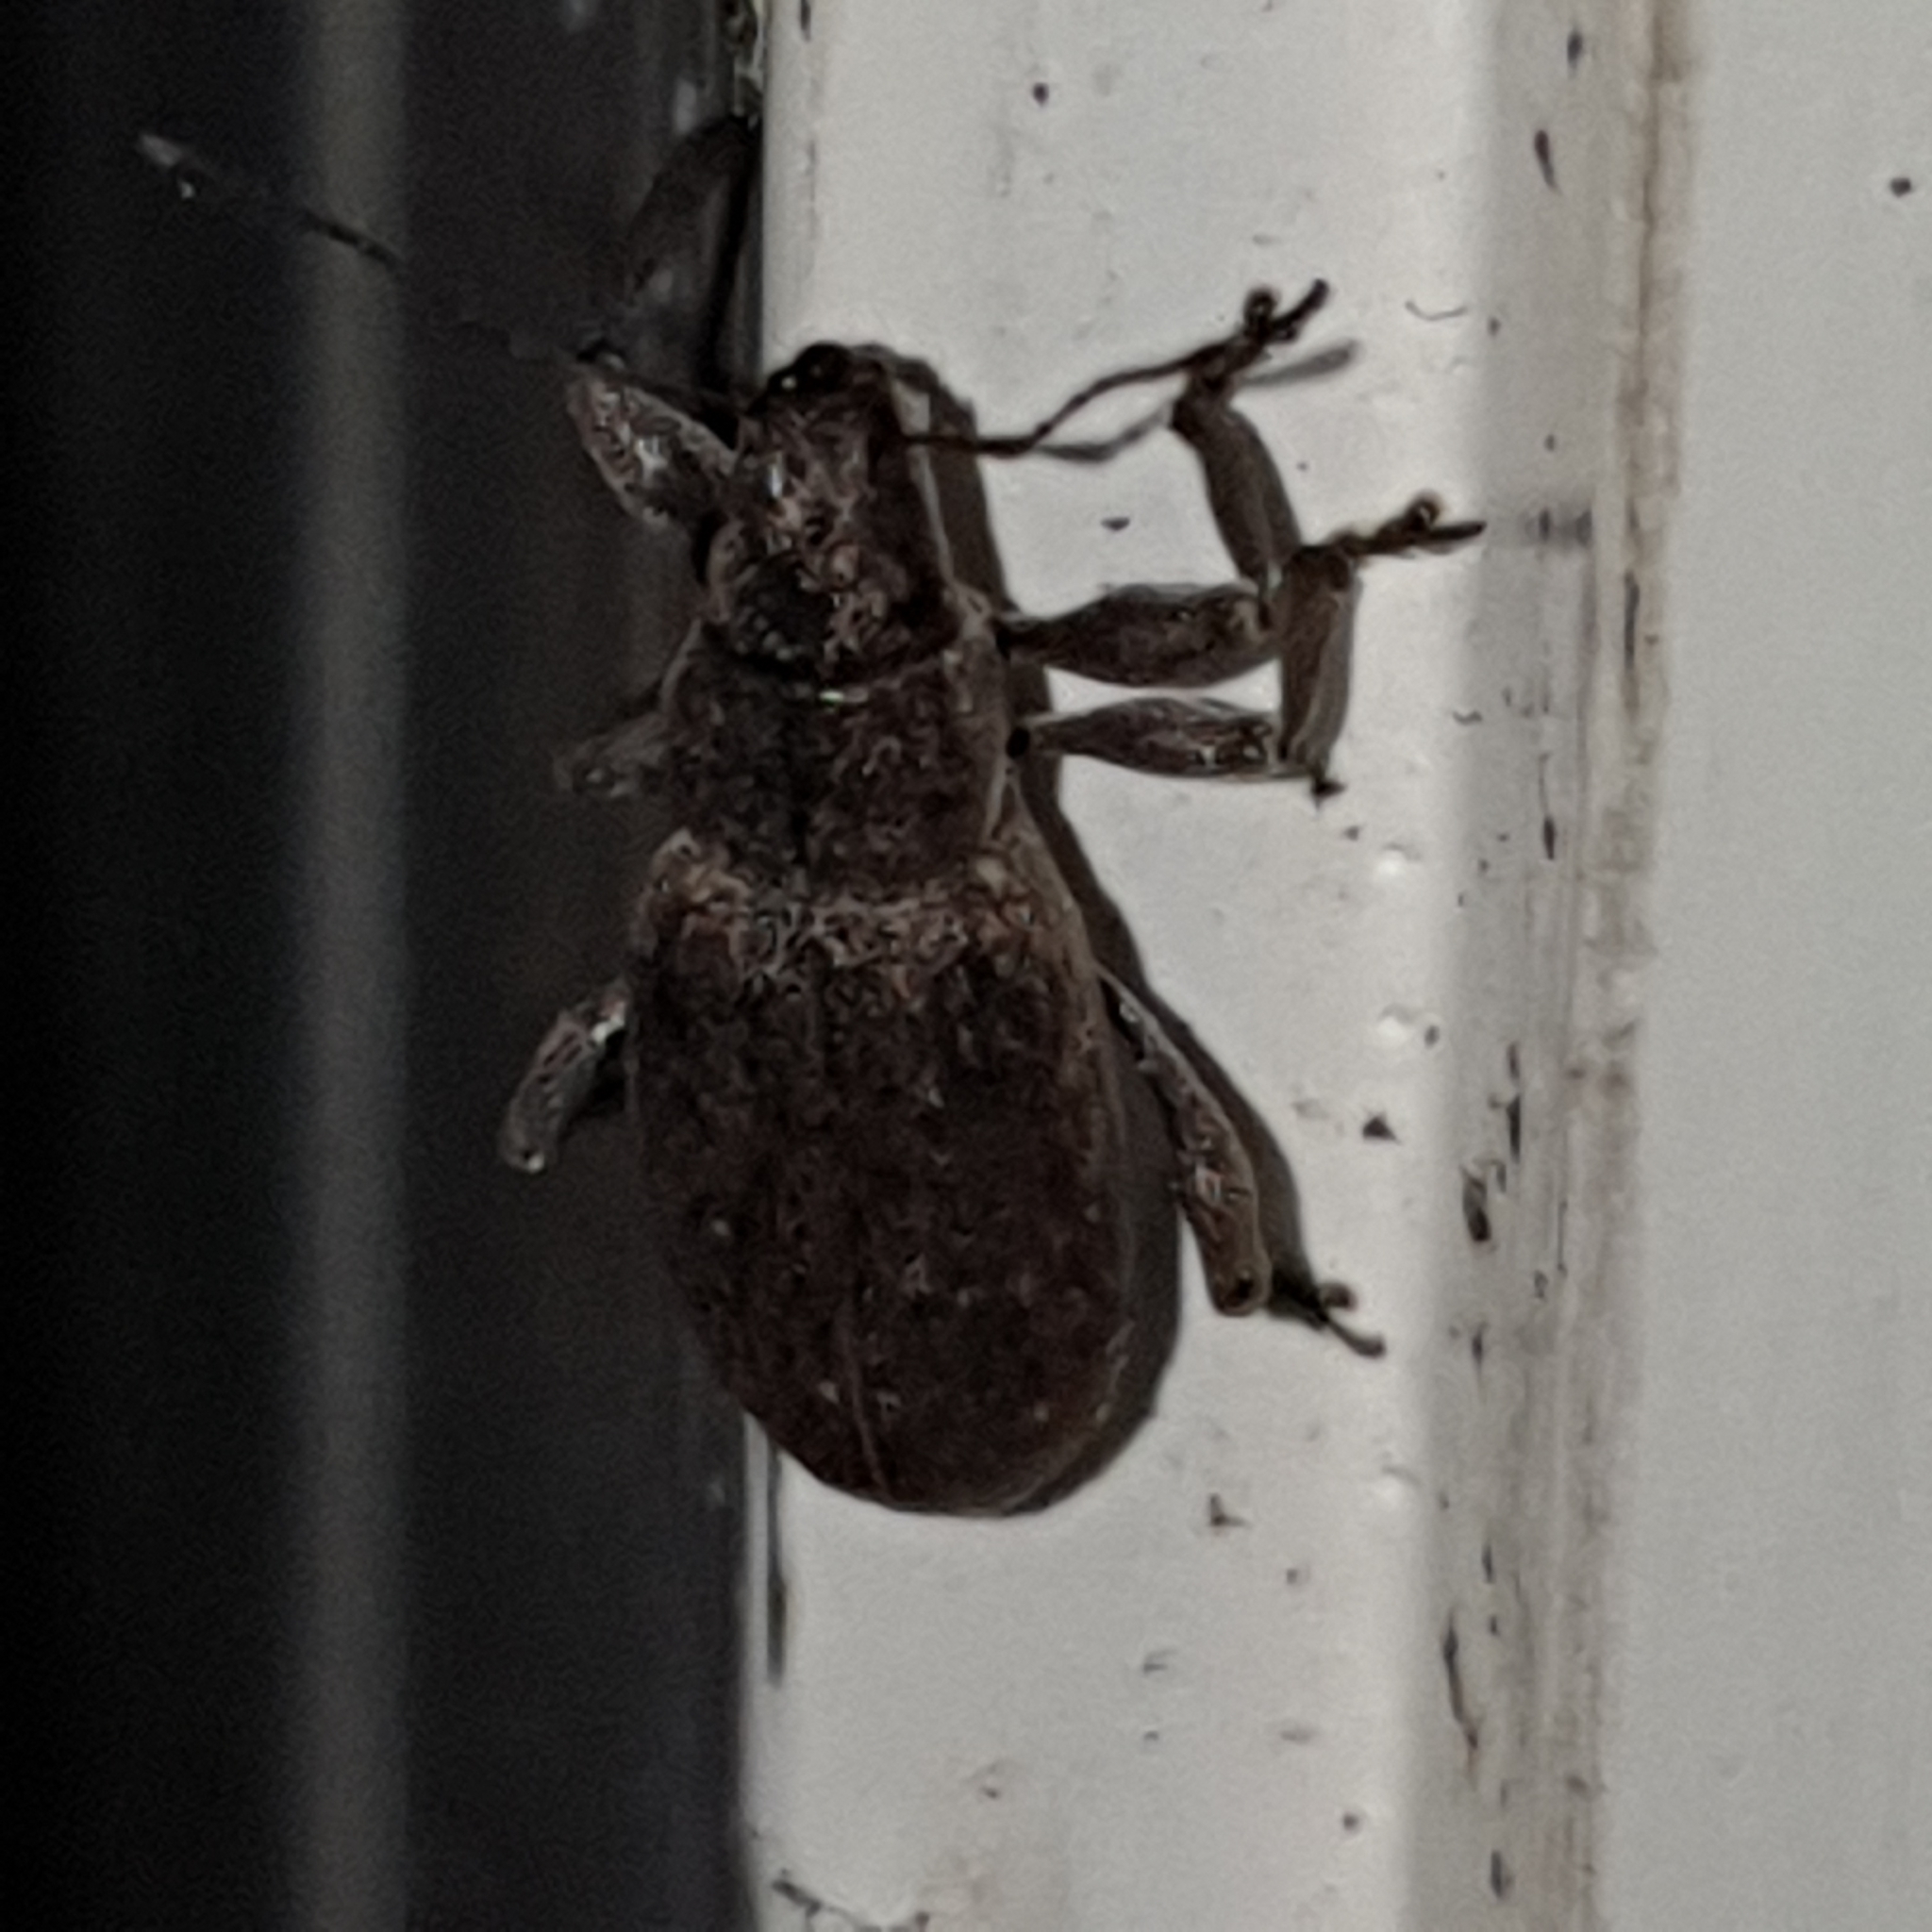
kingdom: Animalia
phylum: Arthropoda
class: Insecta
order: Coleoptera
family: Curculionidae
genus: Brachyderes
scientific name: Brachyderes incanus
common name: Weevil
